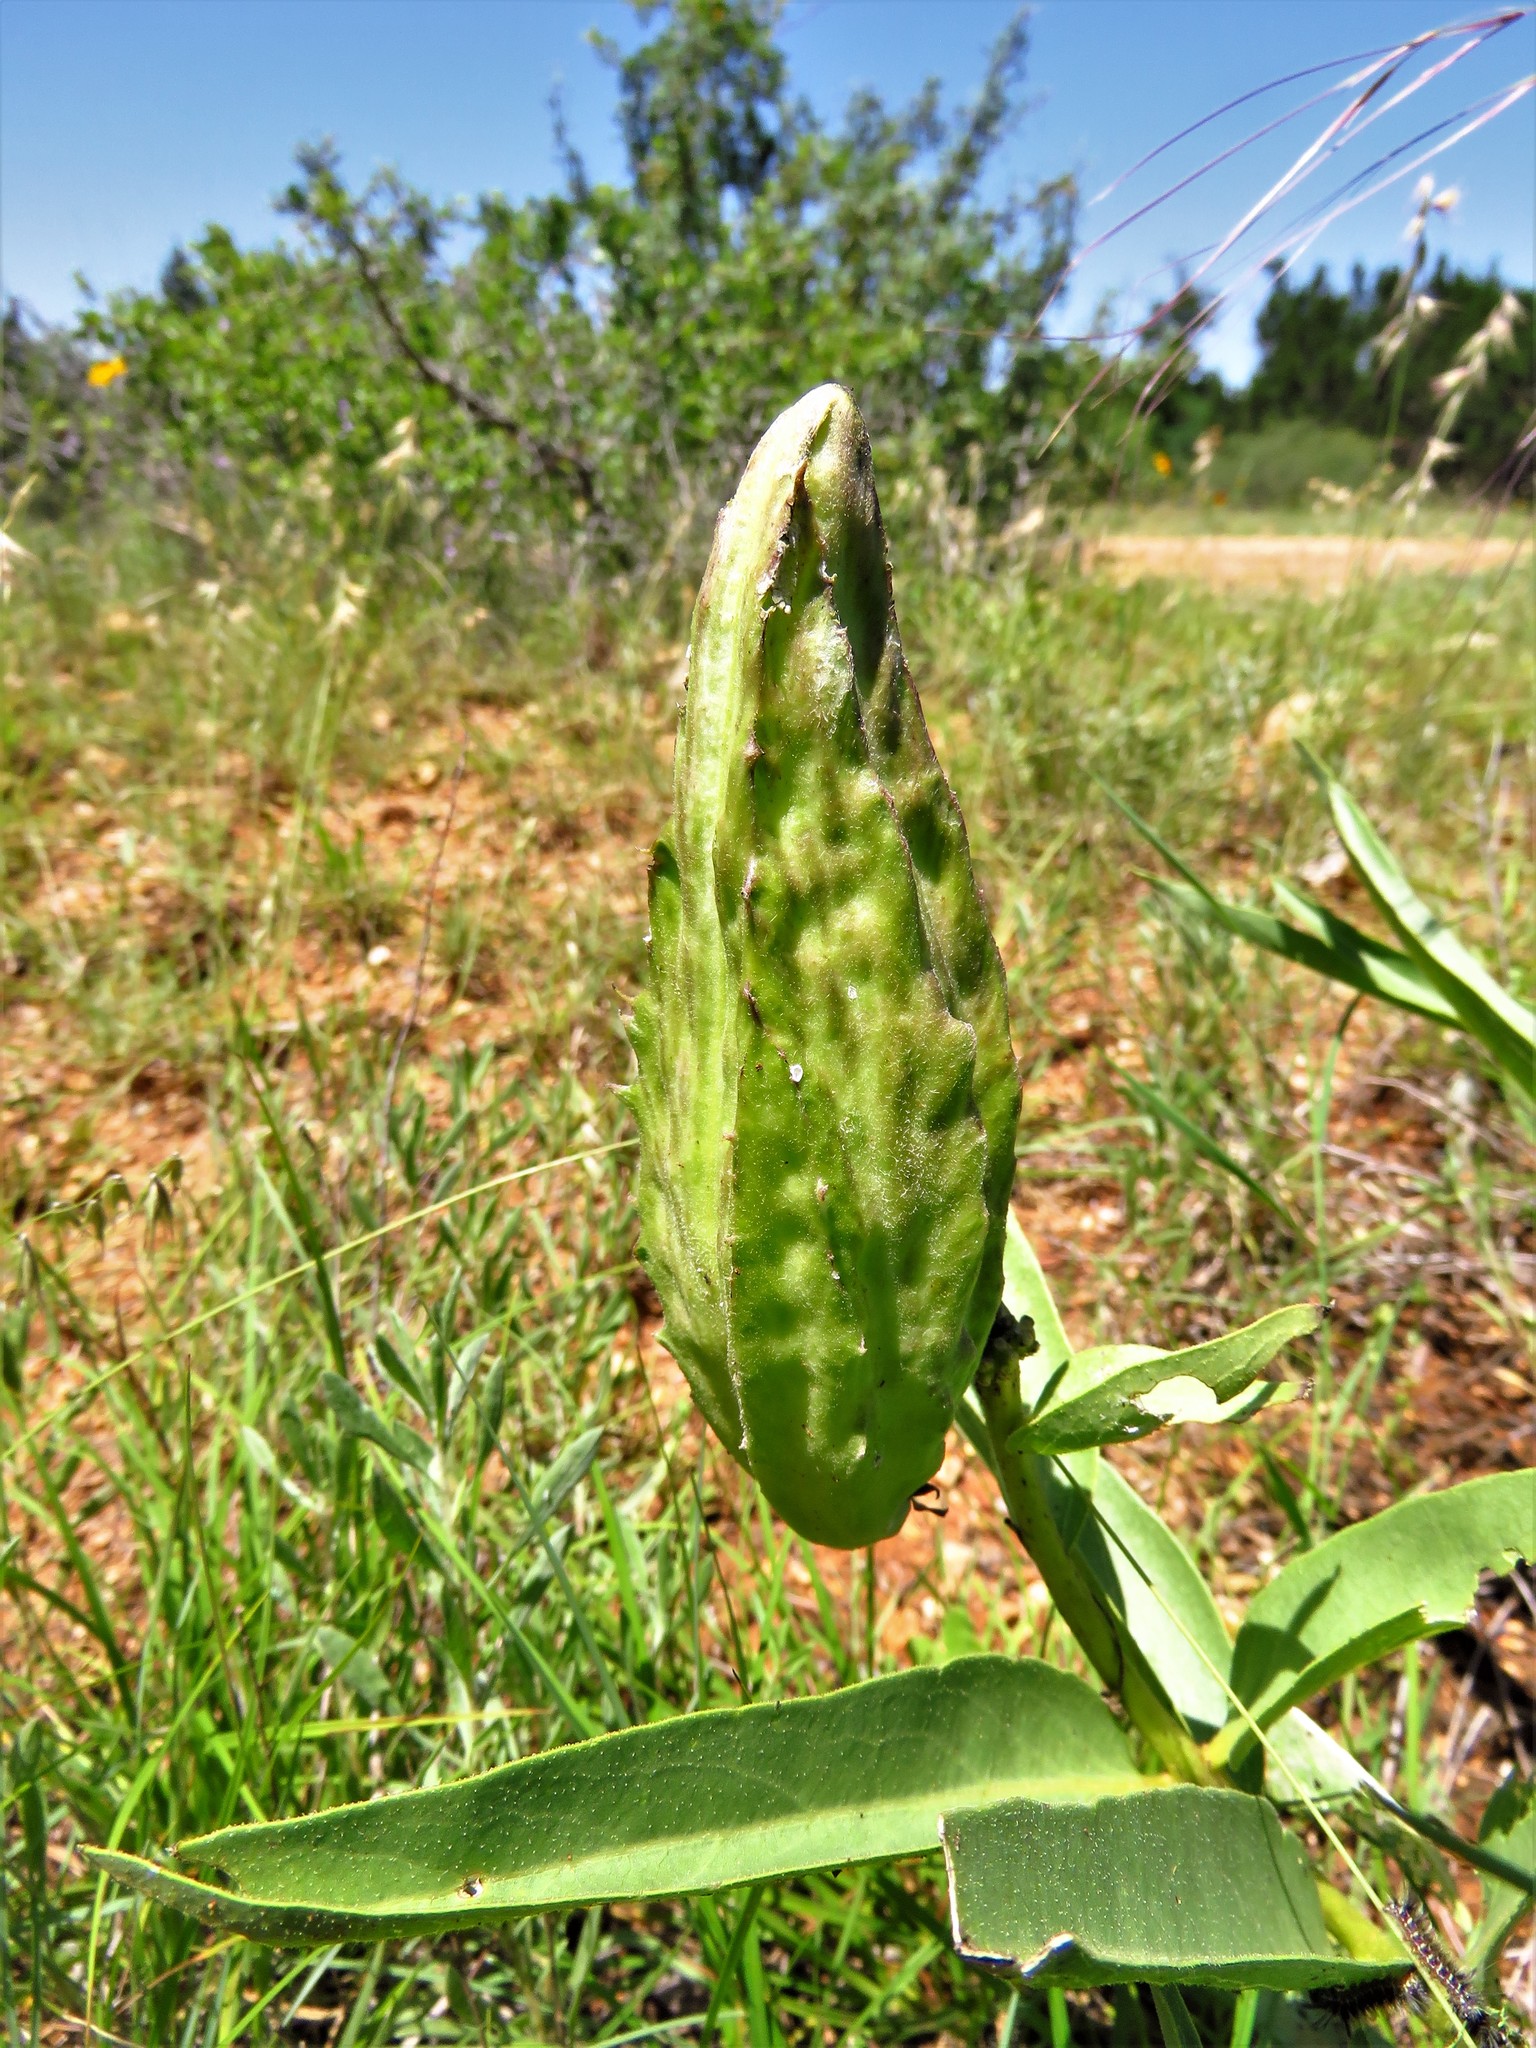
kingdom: Plantae
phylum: Tracheophyta
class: Magnoliopsida
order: Gentianales
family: Apocynaceae
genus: Asclepias
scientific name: Asclepias asperula
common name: Antelope horns
